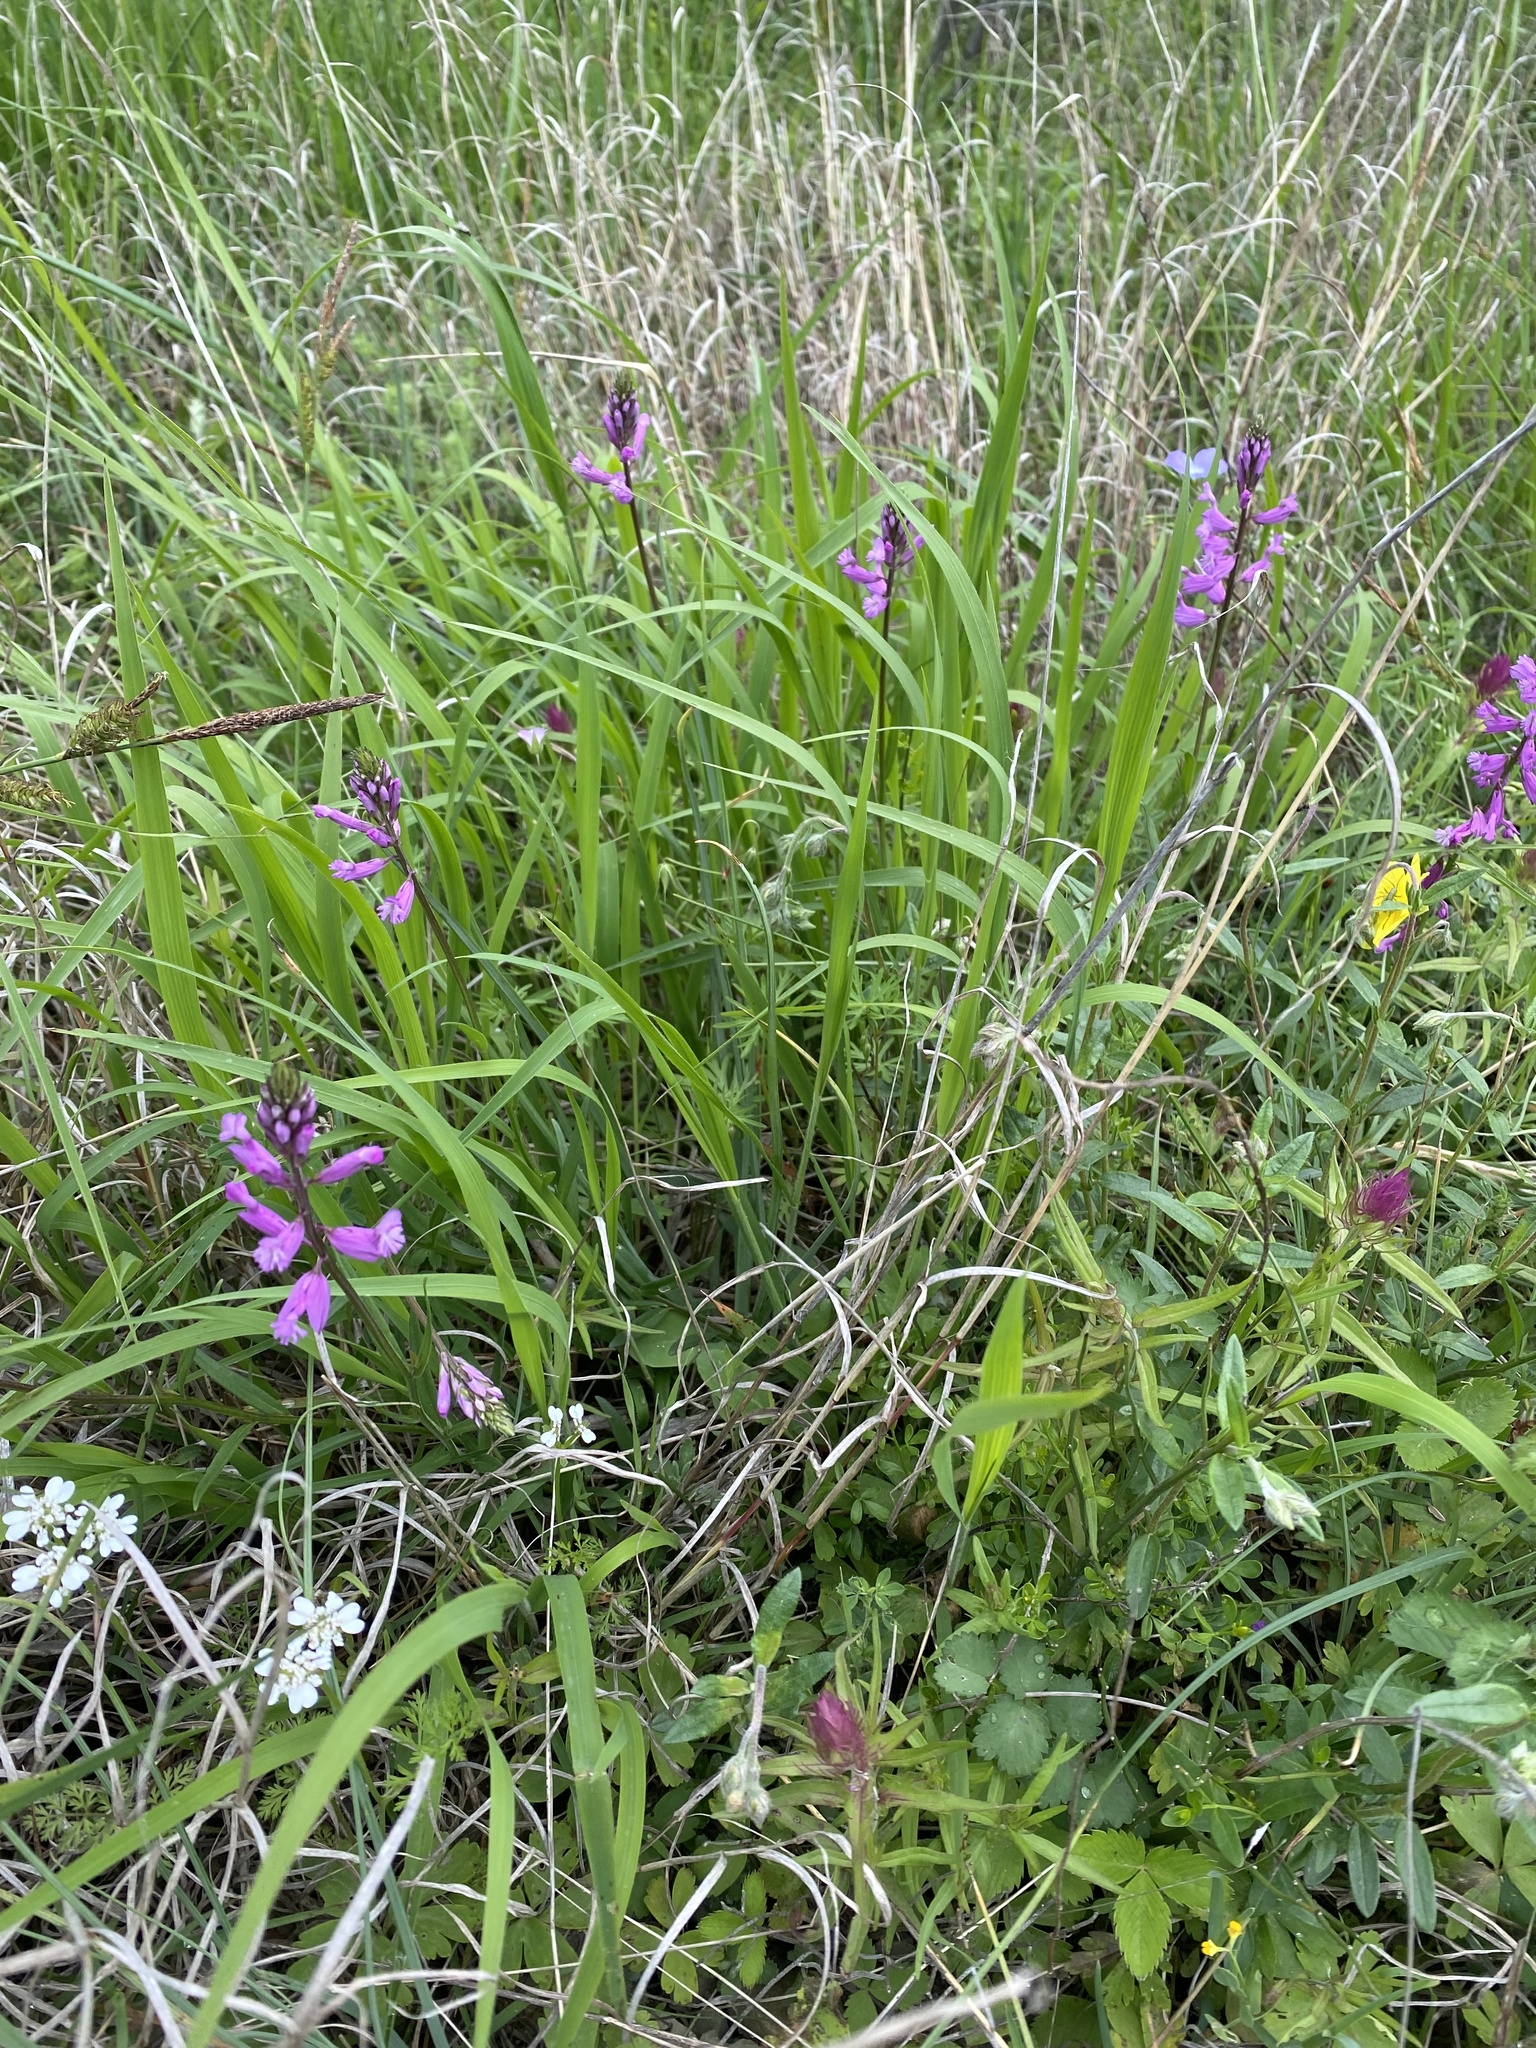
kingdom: Plantae
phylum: Tracheophyta
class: Magnoliopsida
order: Fabales
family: Polygalaceae
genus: Polygala
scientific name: Polygala major
